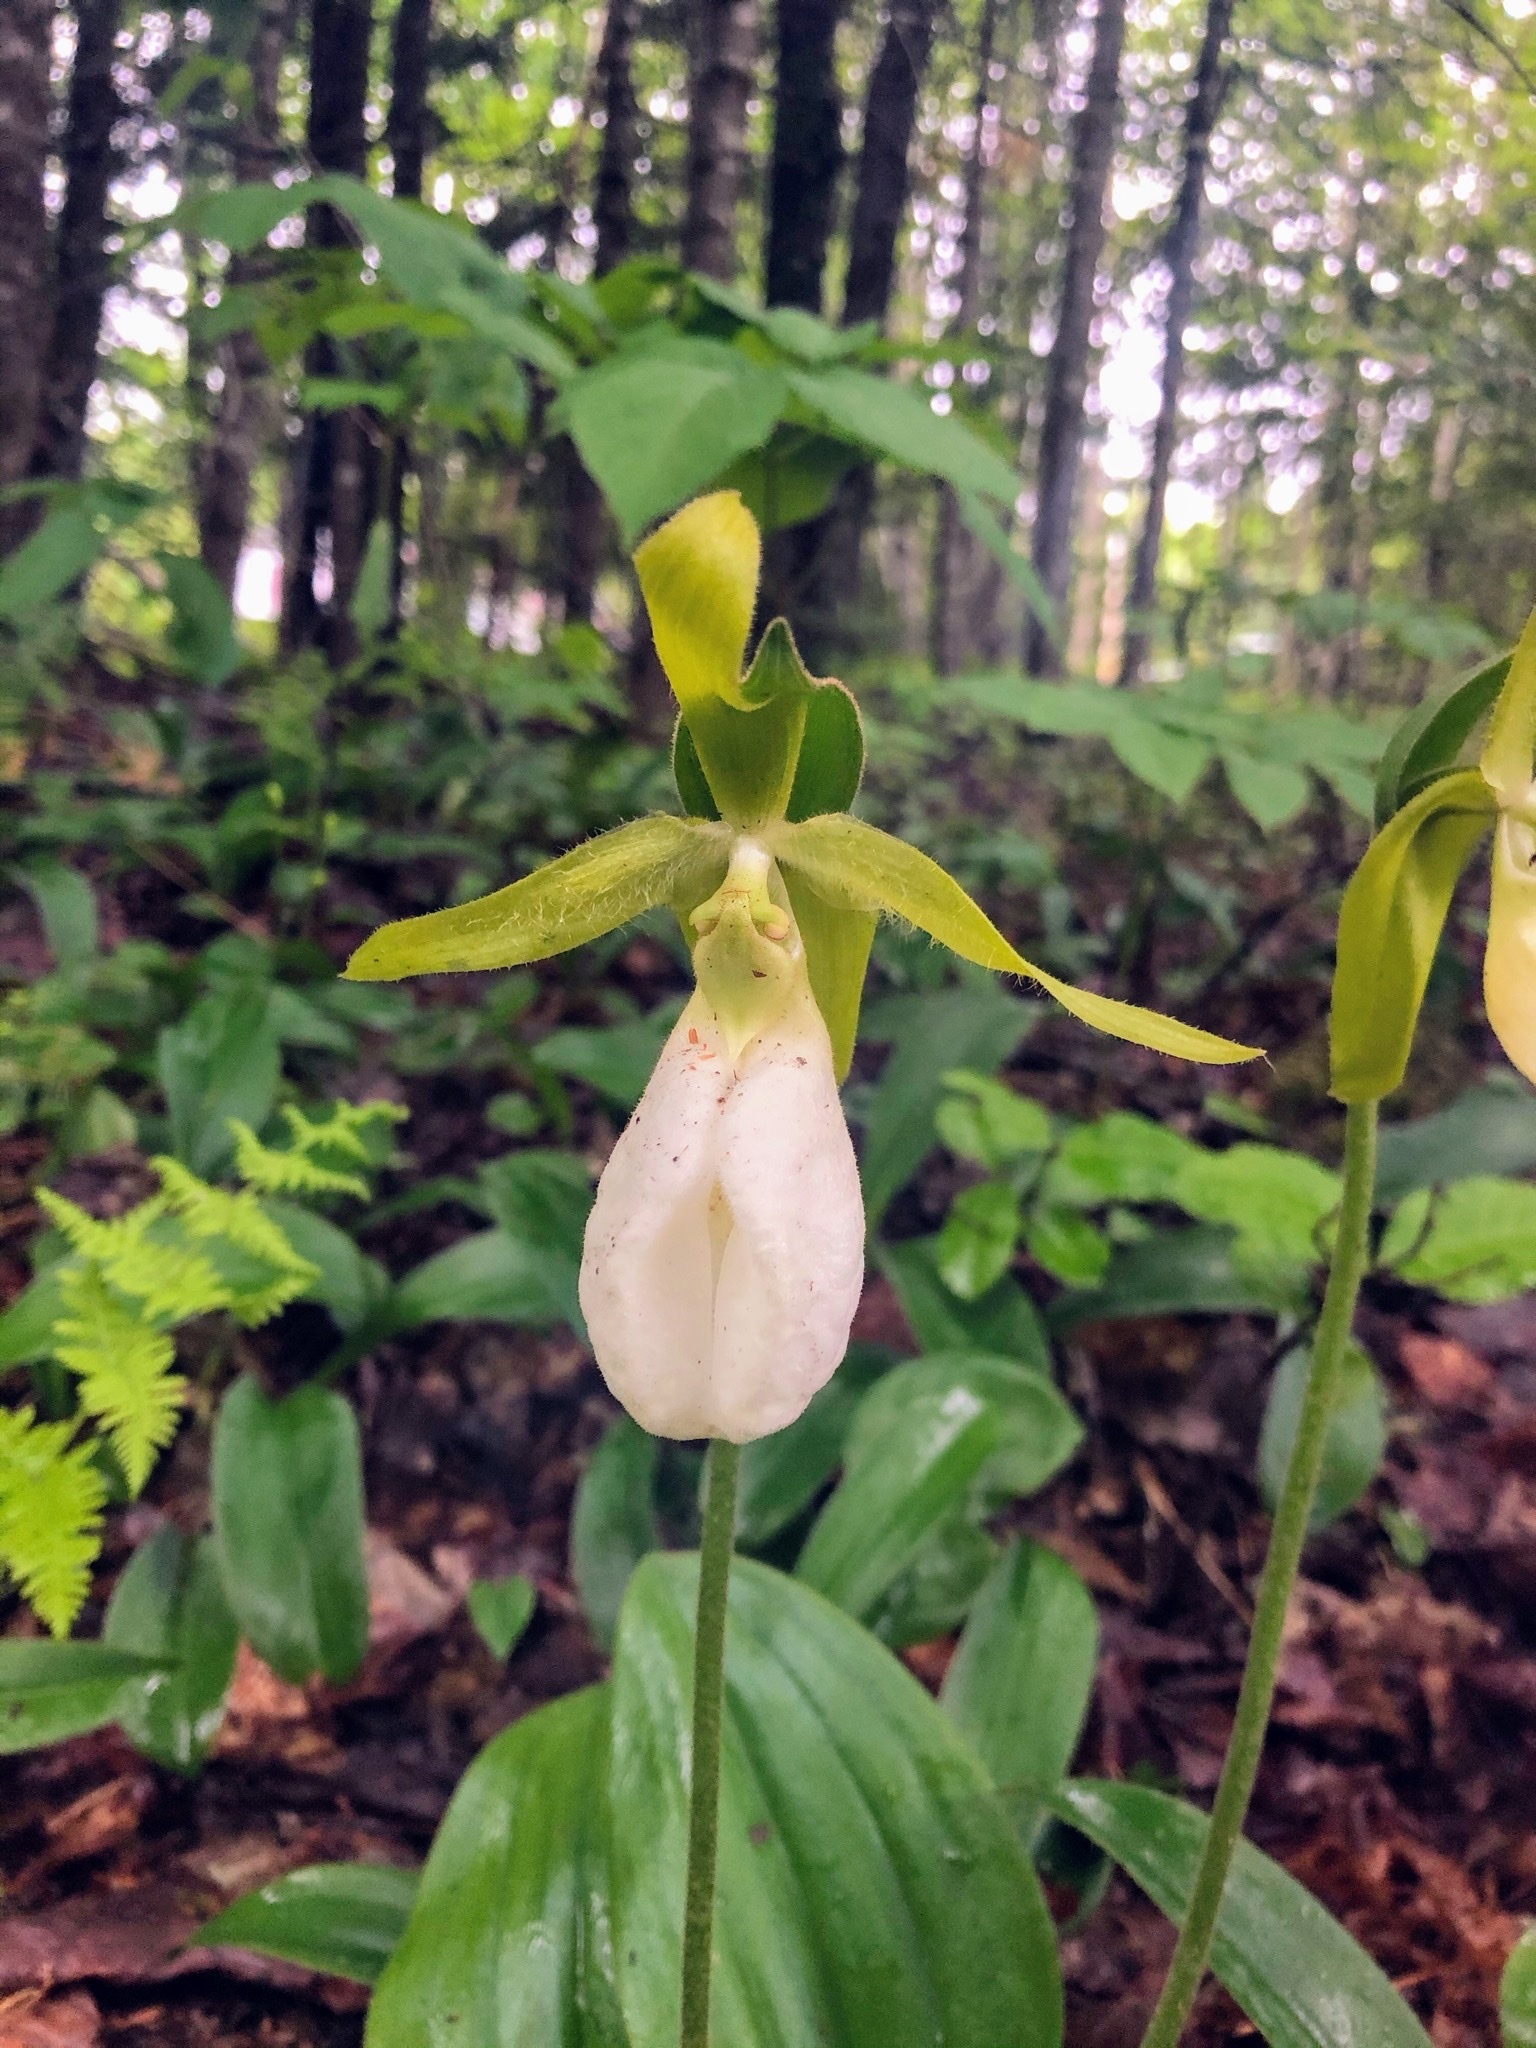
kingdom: Plantae
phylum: Tracheophyta
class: Liliopsida
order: Asparagales
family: Orchidaceae
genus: Cypripedium
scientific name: Cypripedium acaule
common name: Pink lady's-slipper
